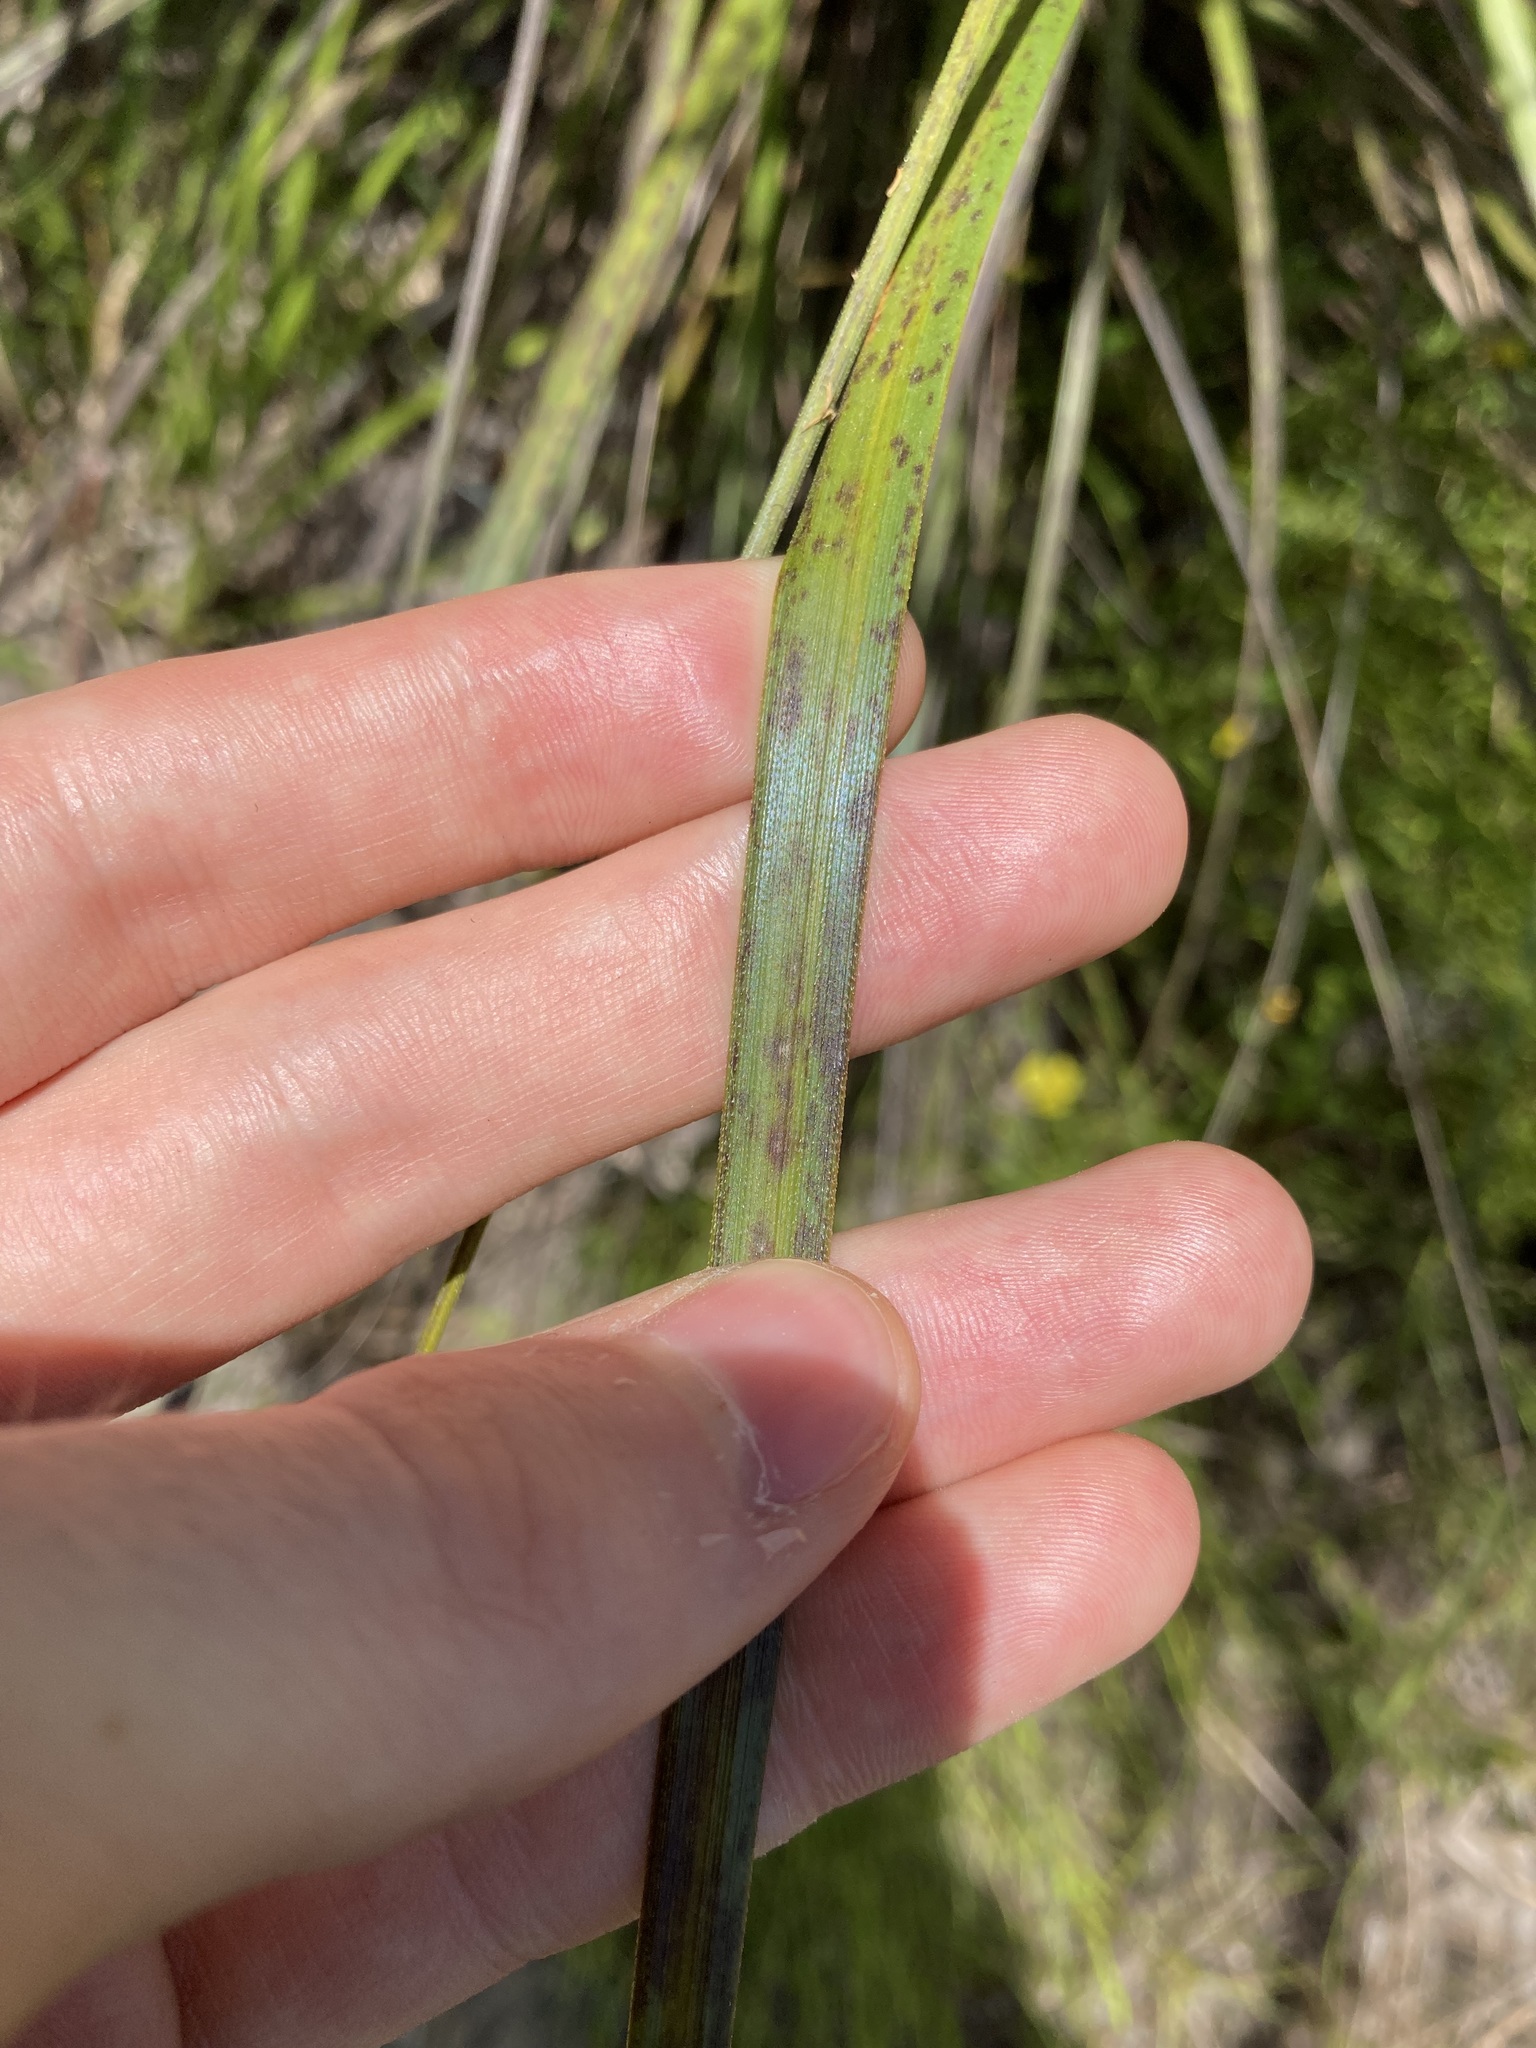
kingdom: Plantae
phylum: Tracheophyta
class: Liliopsida
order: Poales
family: Cyperaceae
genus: Gahnia
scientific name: Gahnia sieberiana
